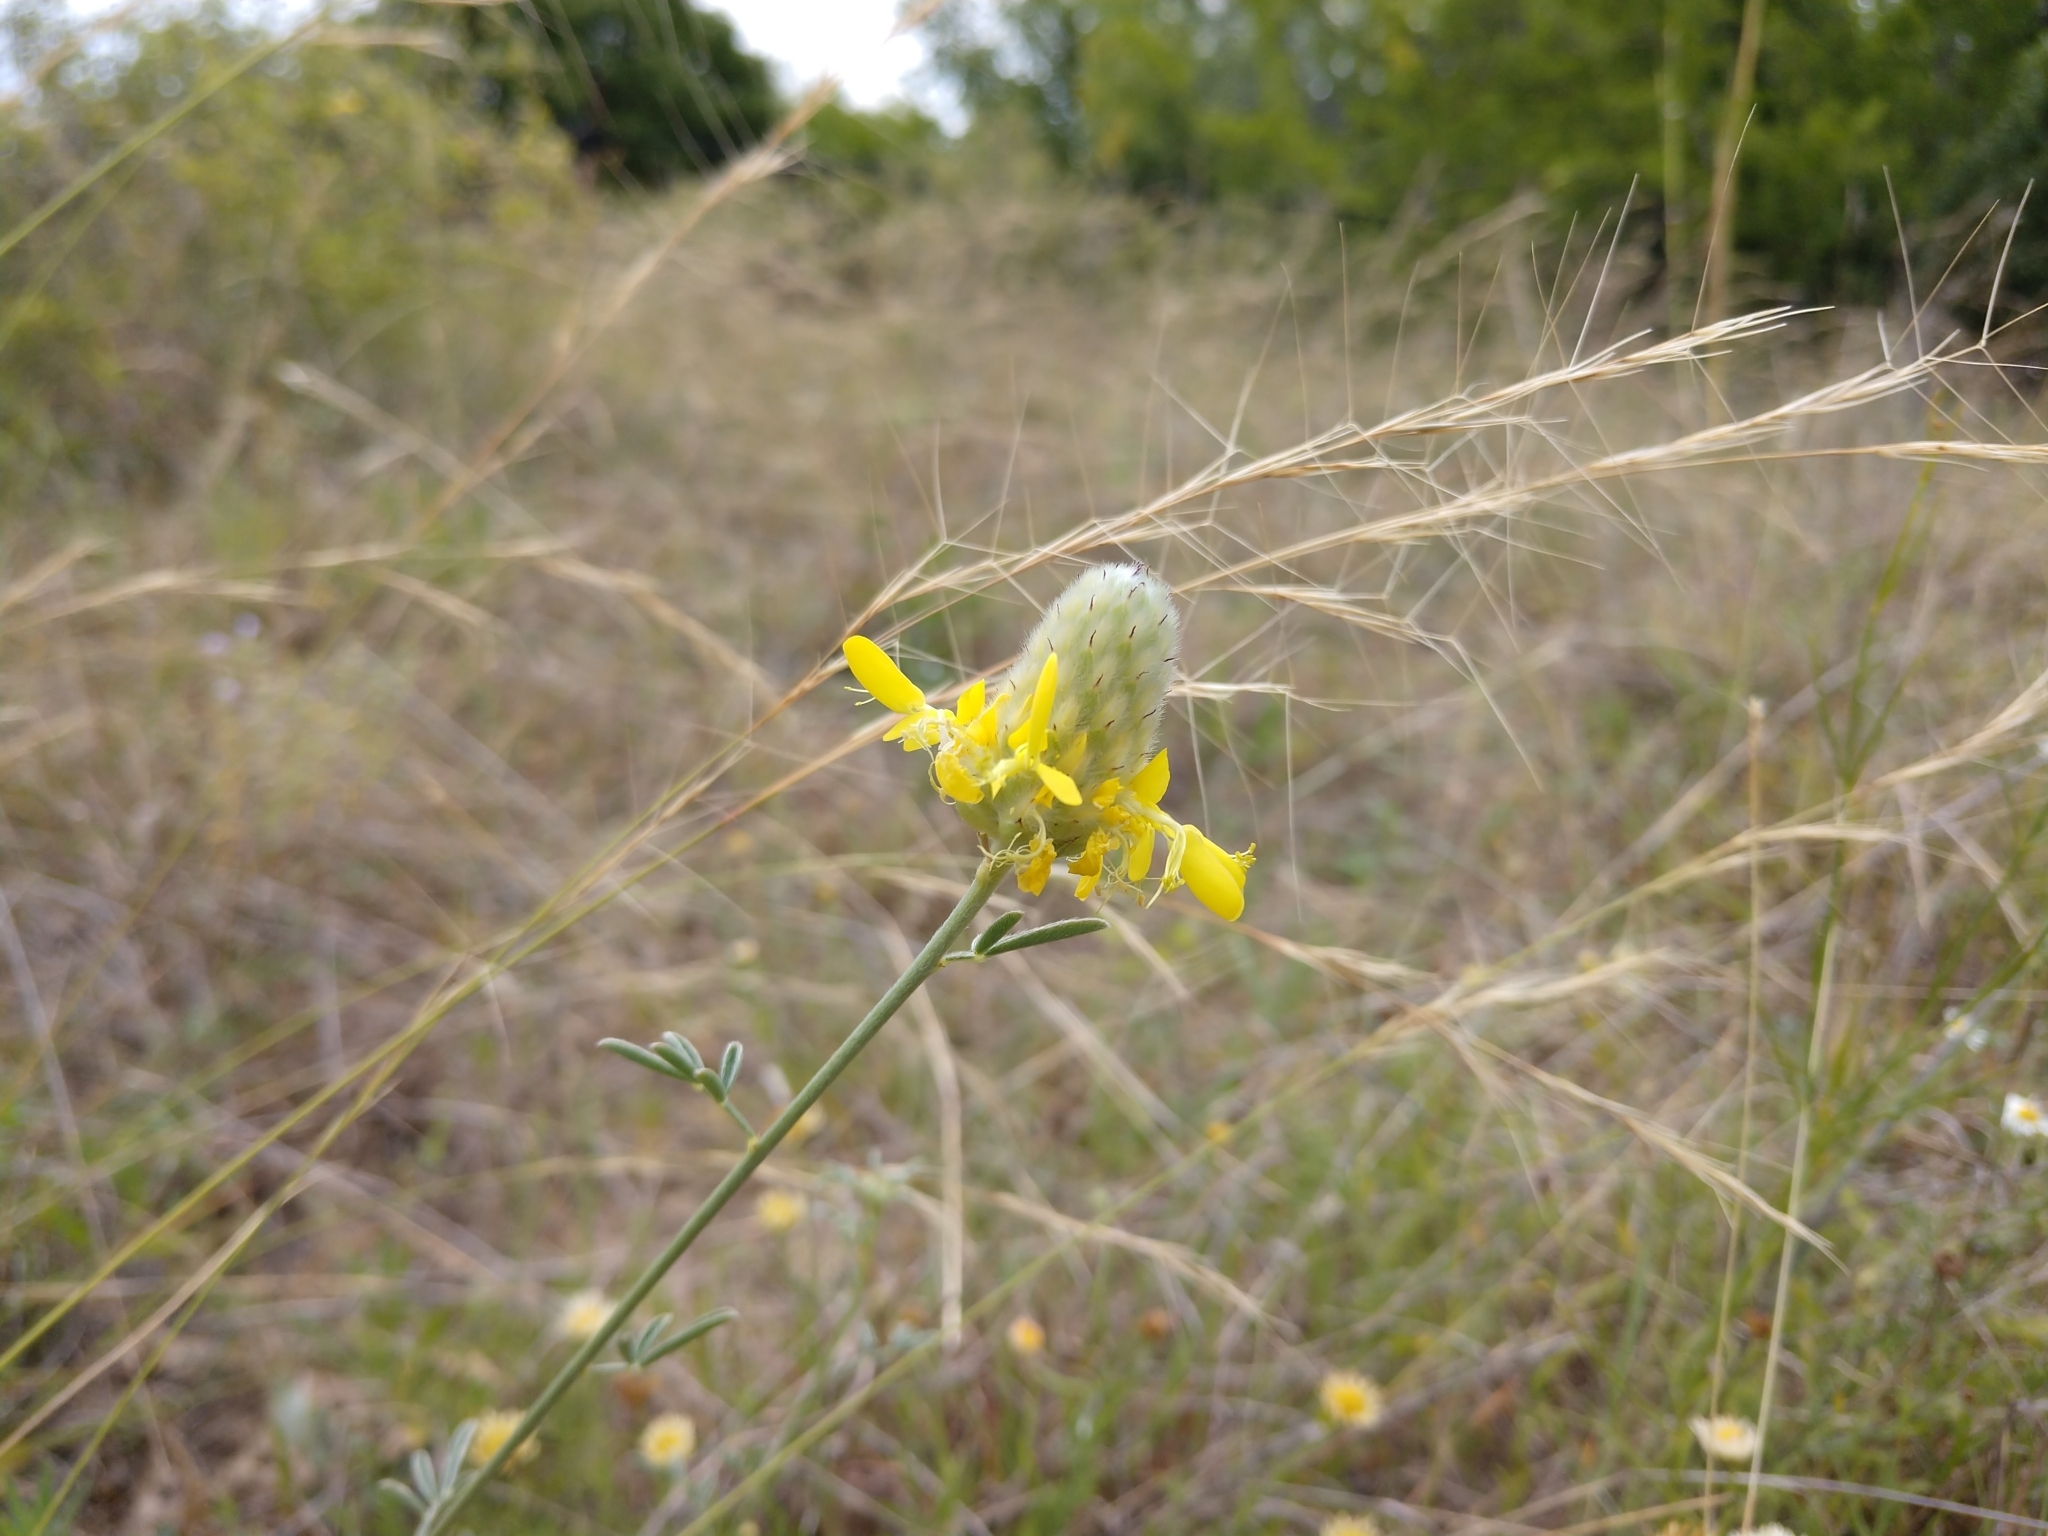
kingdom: Plantae
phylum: Tracheophyta
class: Magnoliopsida
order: Fabales
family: Fabaceae
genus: Dalea
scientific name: Dalea aurea
